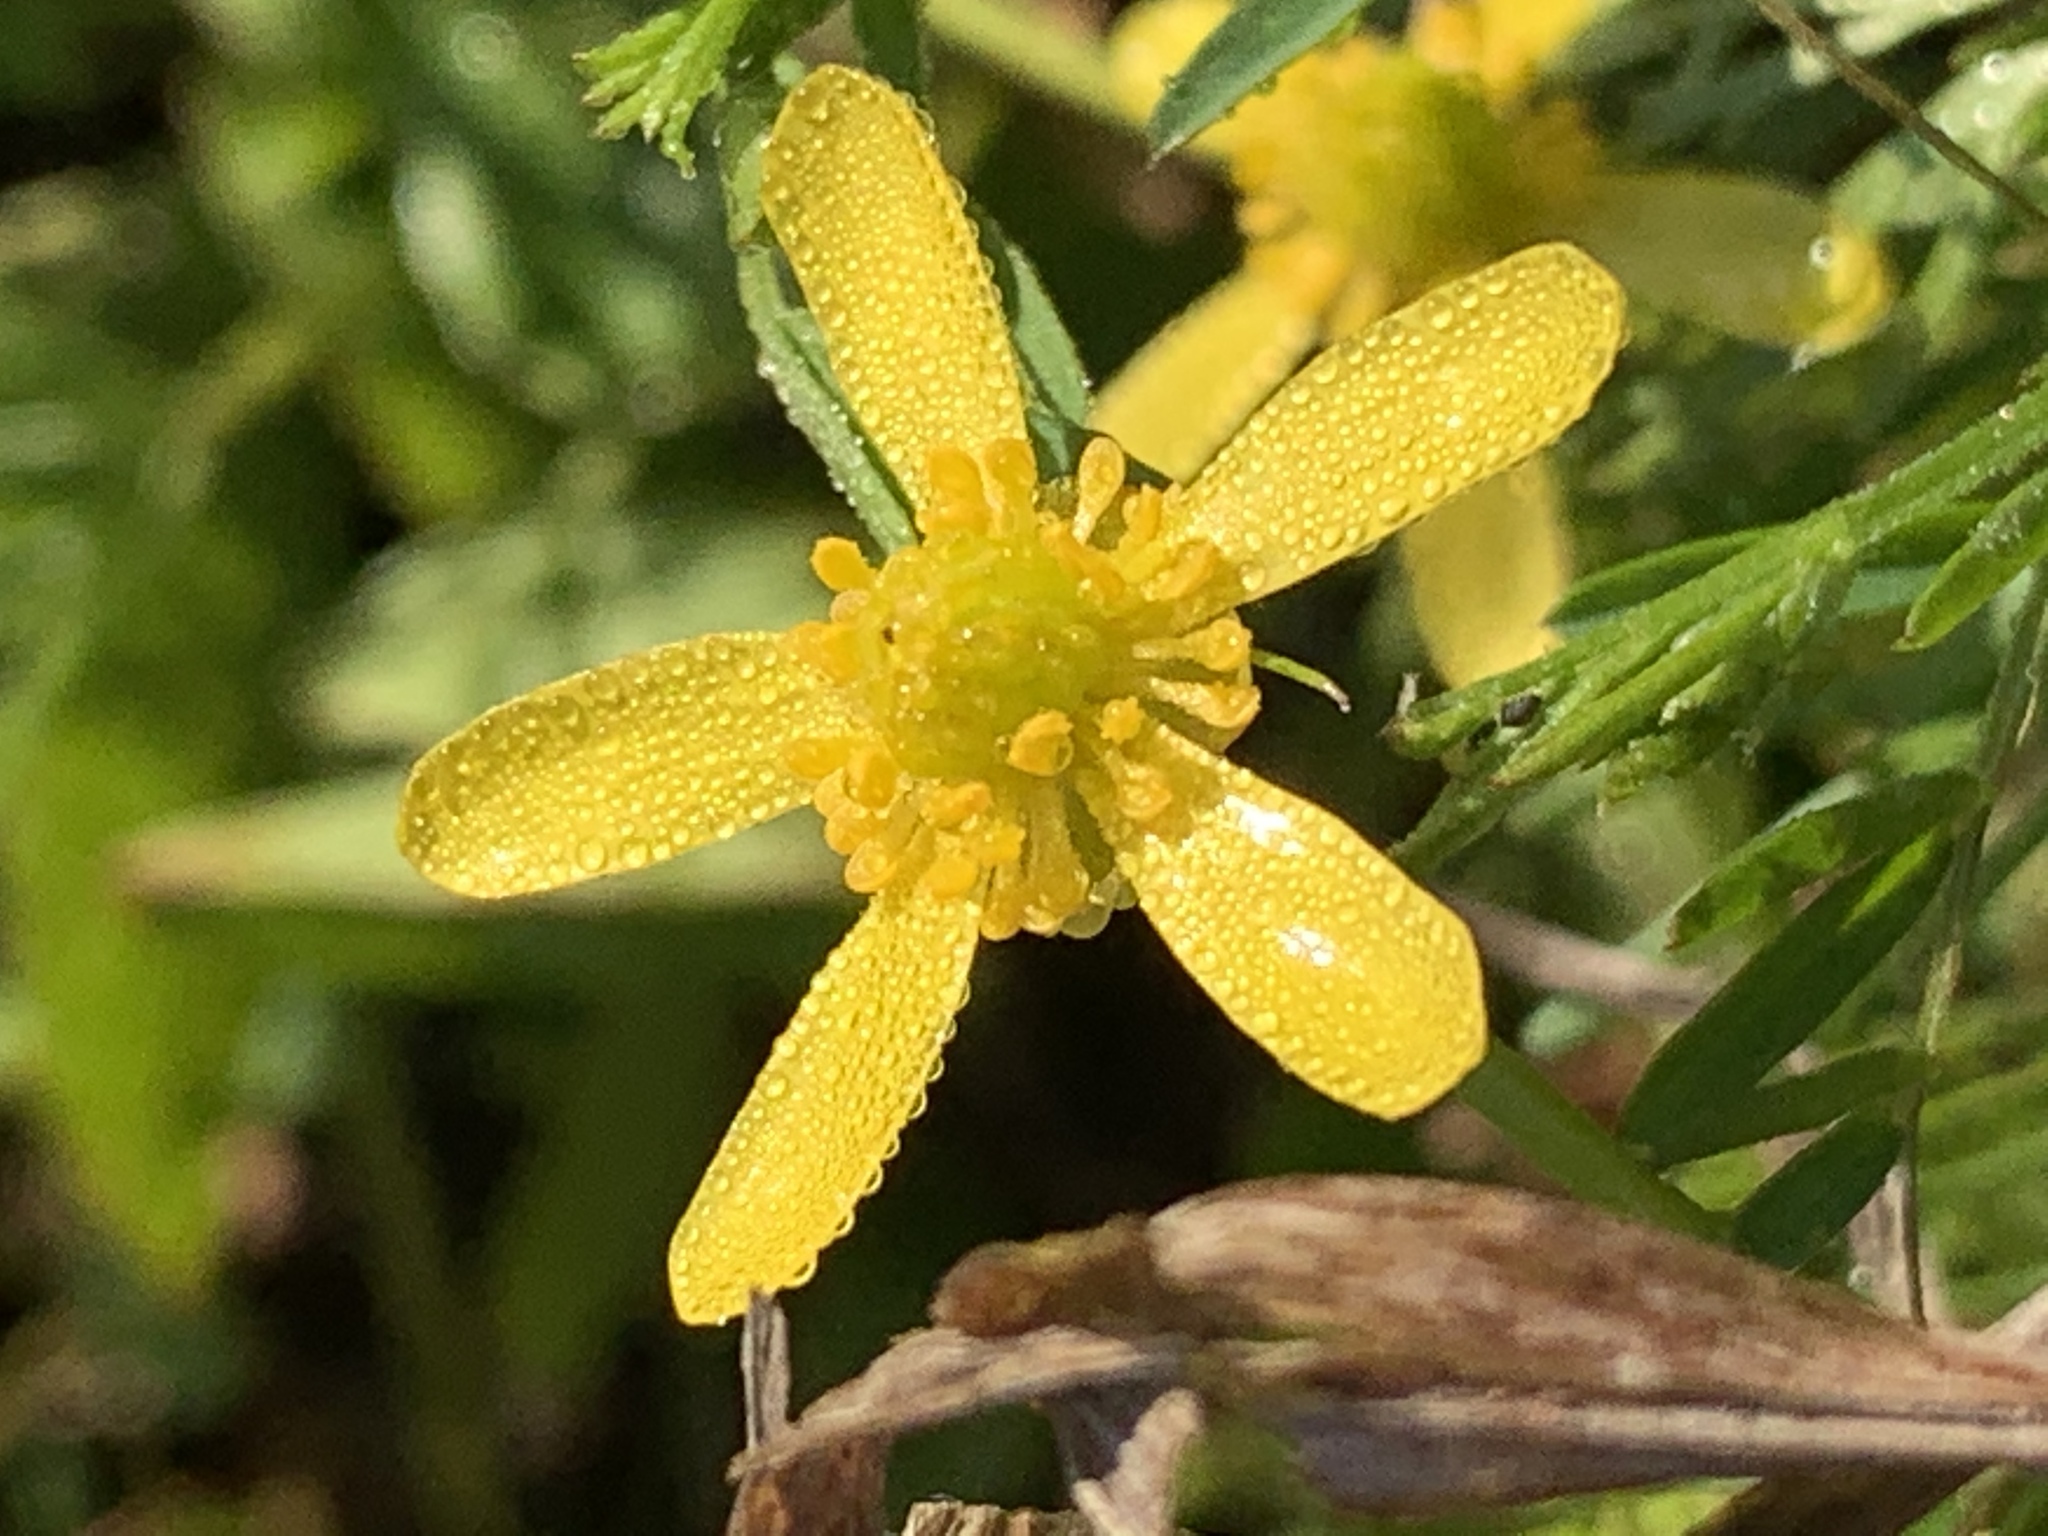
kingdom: Plantae
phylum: Tracheophyta
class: Magnoliopsida
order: Ranunculales
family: Ranunculaceae
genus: Ranunculus
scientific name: Ranunculus inundatus
